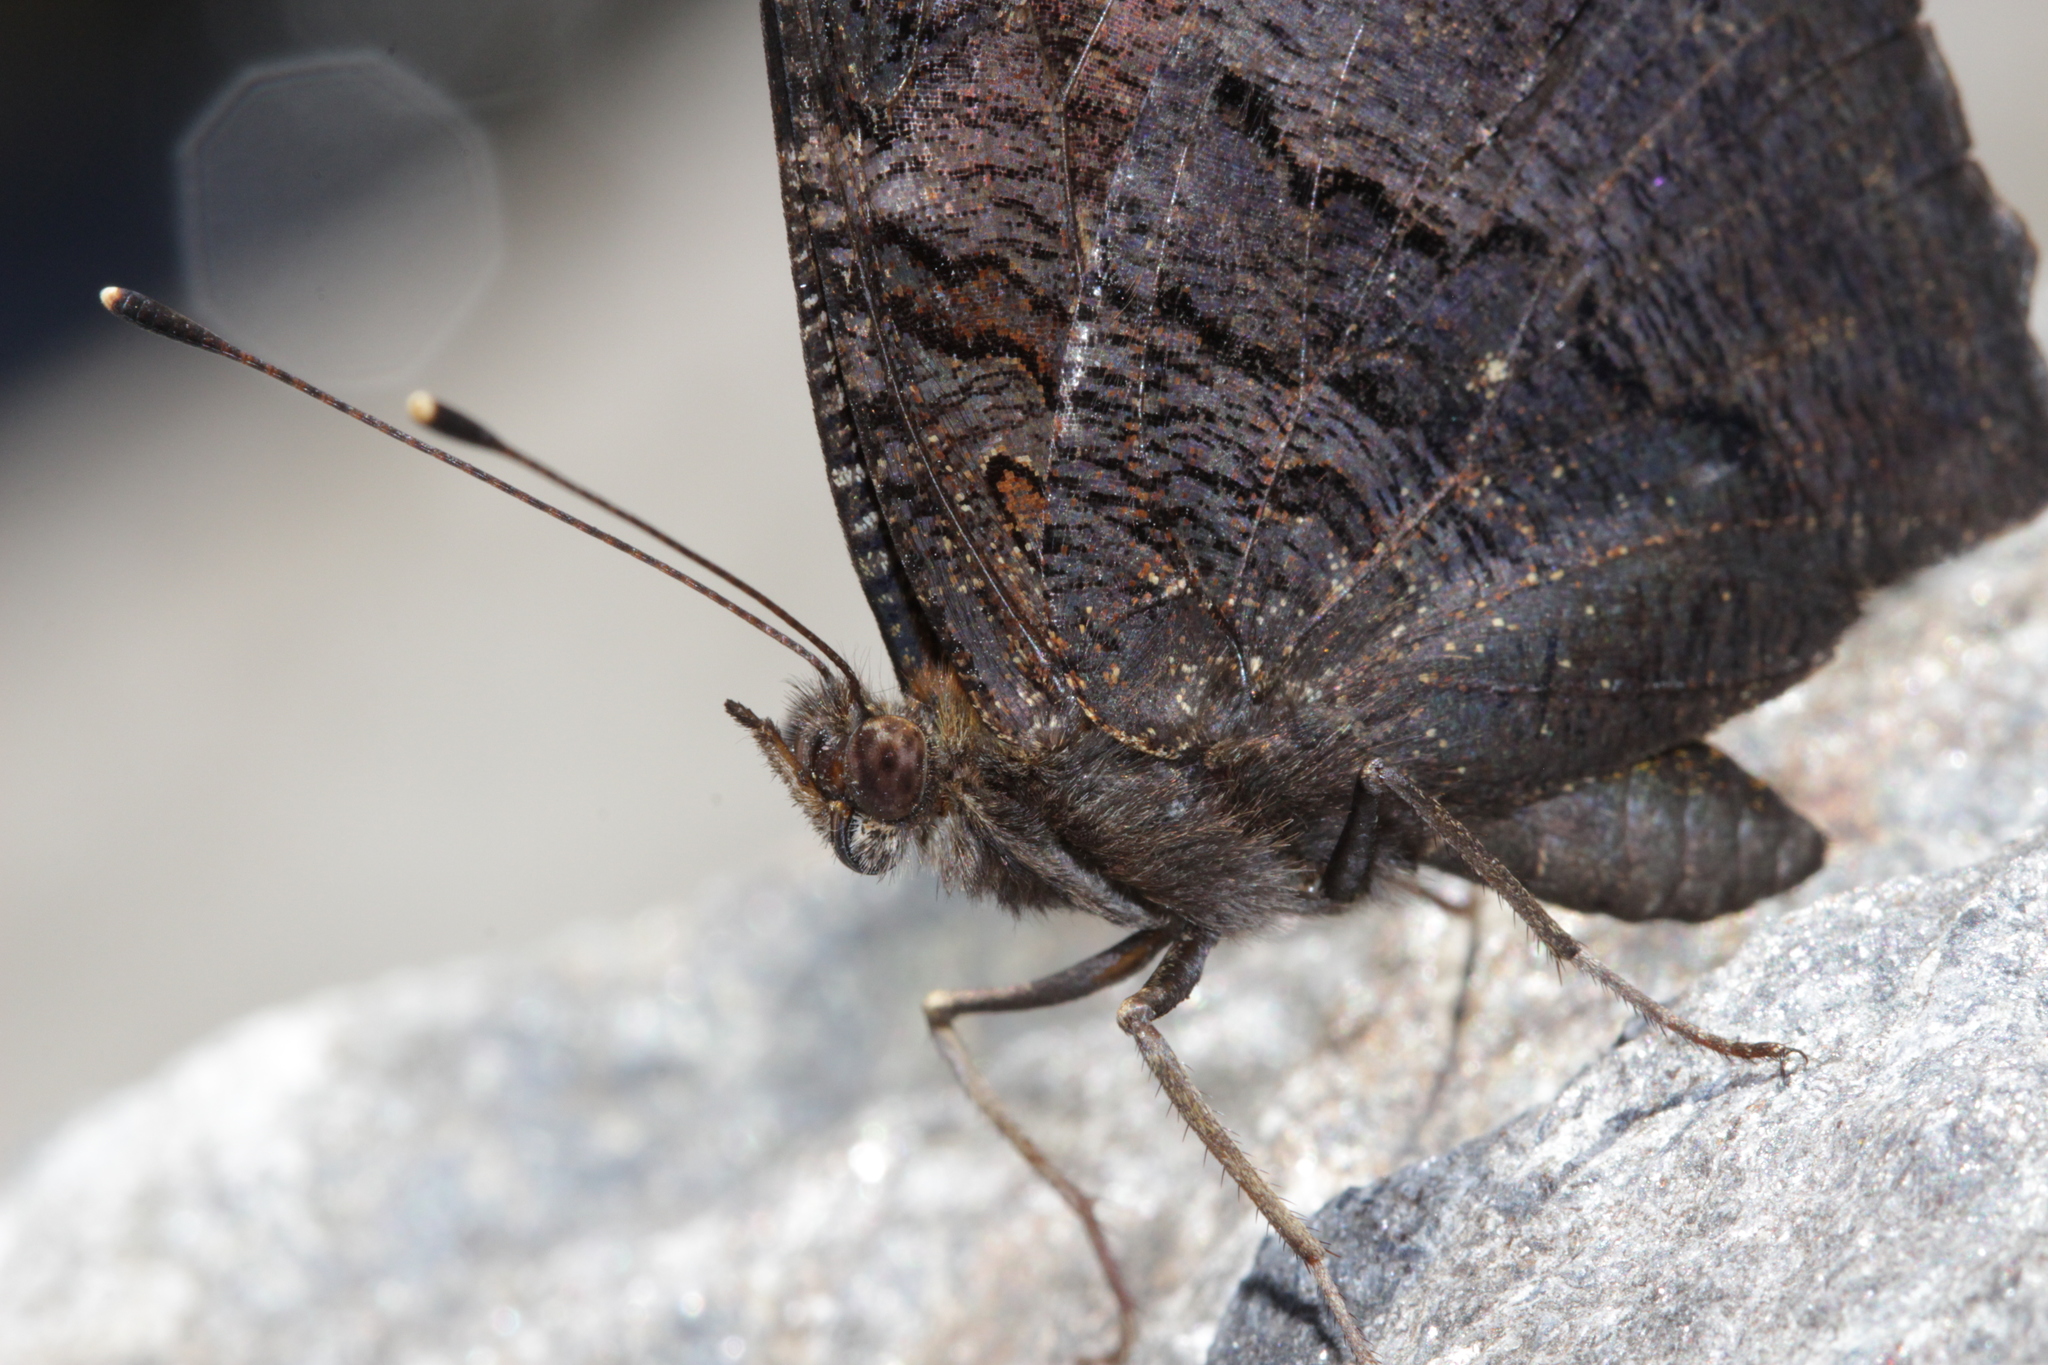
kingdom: Animalia
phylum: Arthropoda
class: Insecta
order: Lepidoptera
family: Nymphalidae
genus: Aglais
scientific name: Aglais io
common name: Peacock
